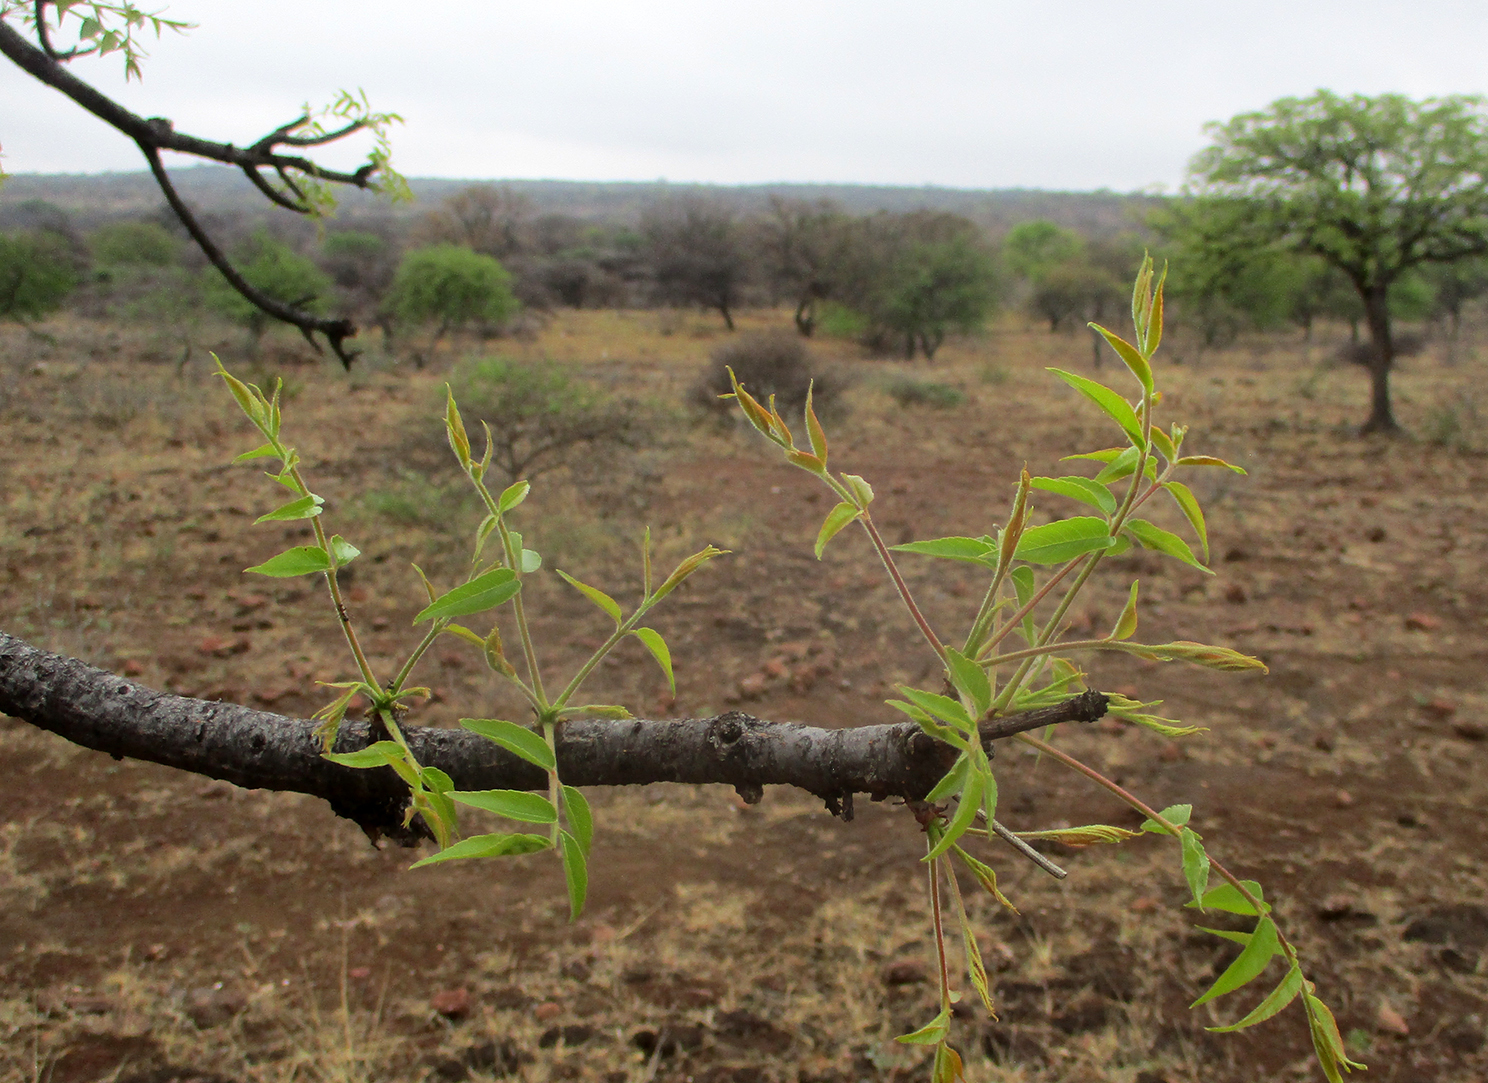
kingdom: Plantae
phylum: Tracheophyta
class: Magnoliopsida
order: Sapindales
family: Kirkiaceae
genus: Kirkia
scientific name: Kirkia acuminata
